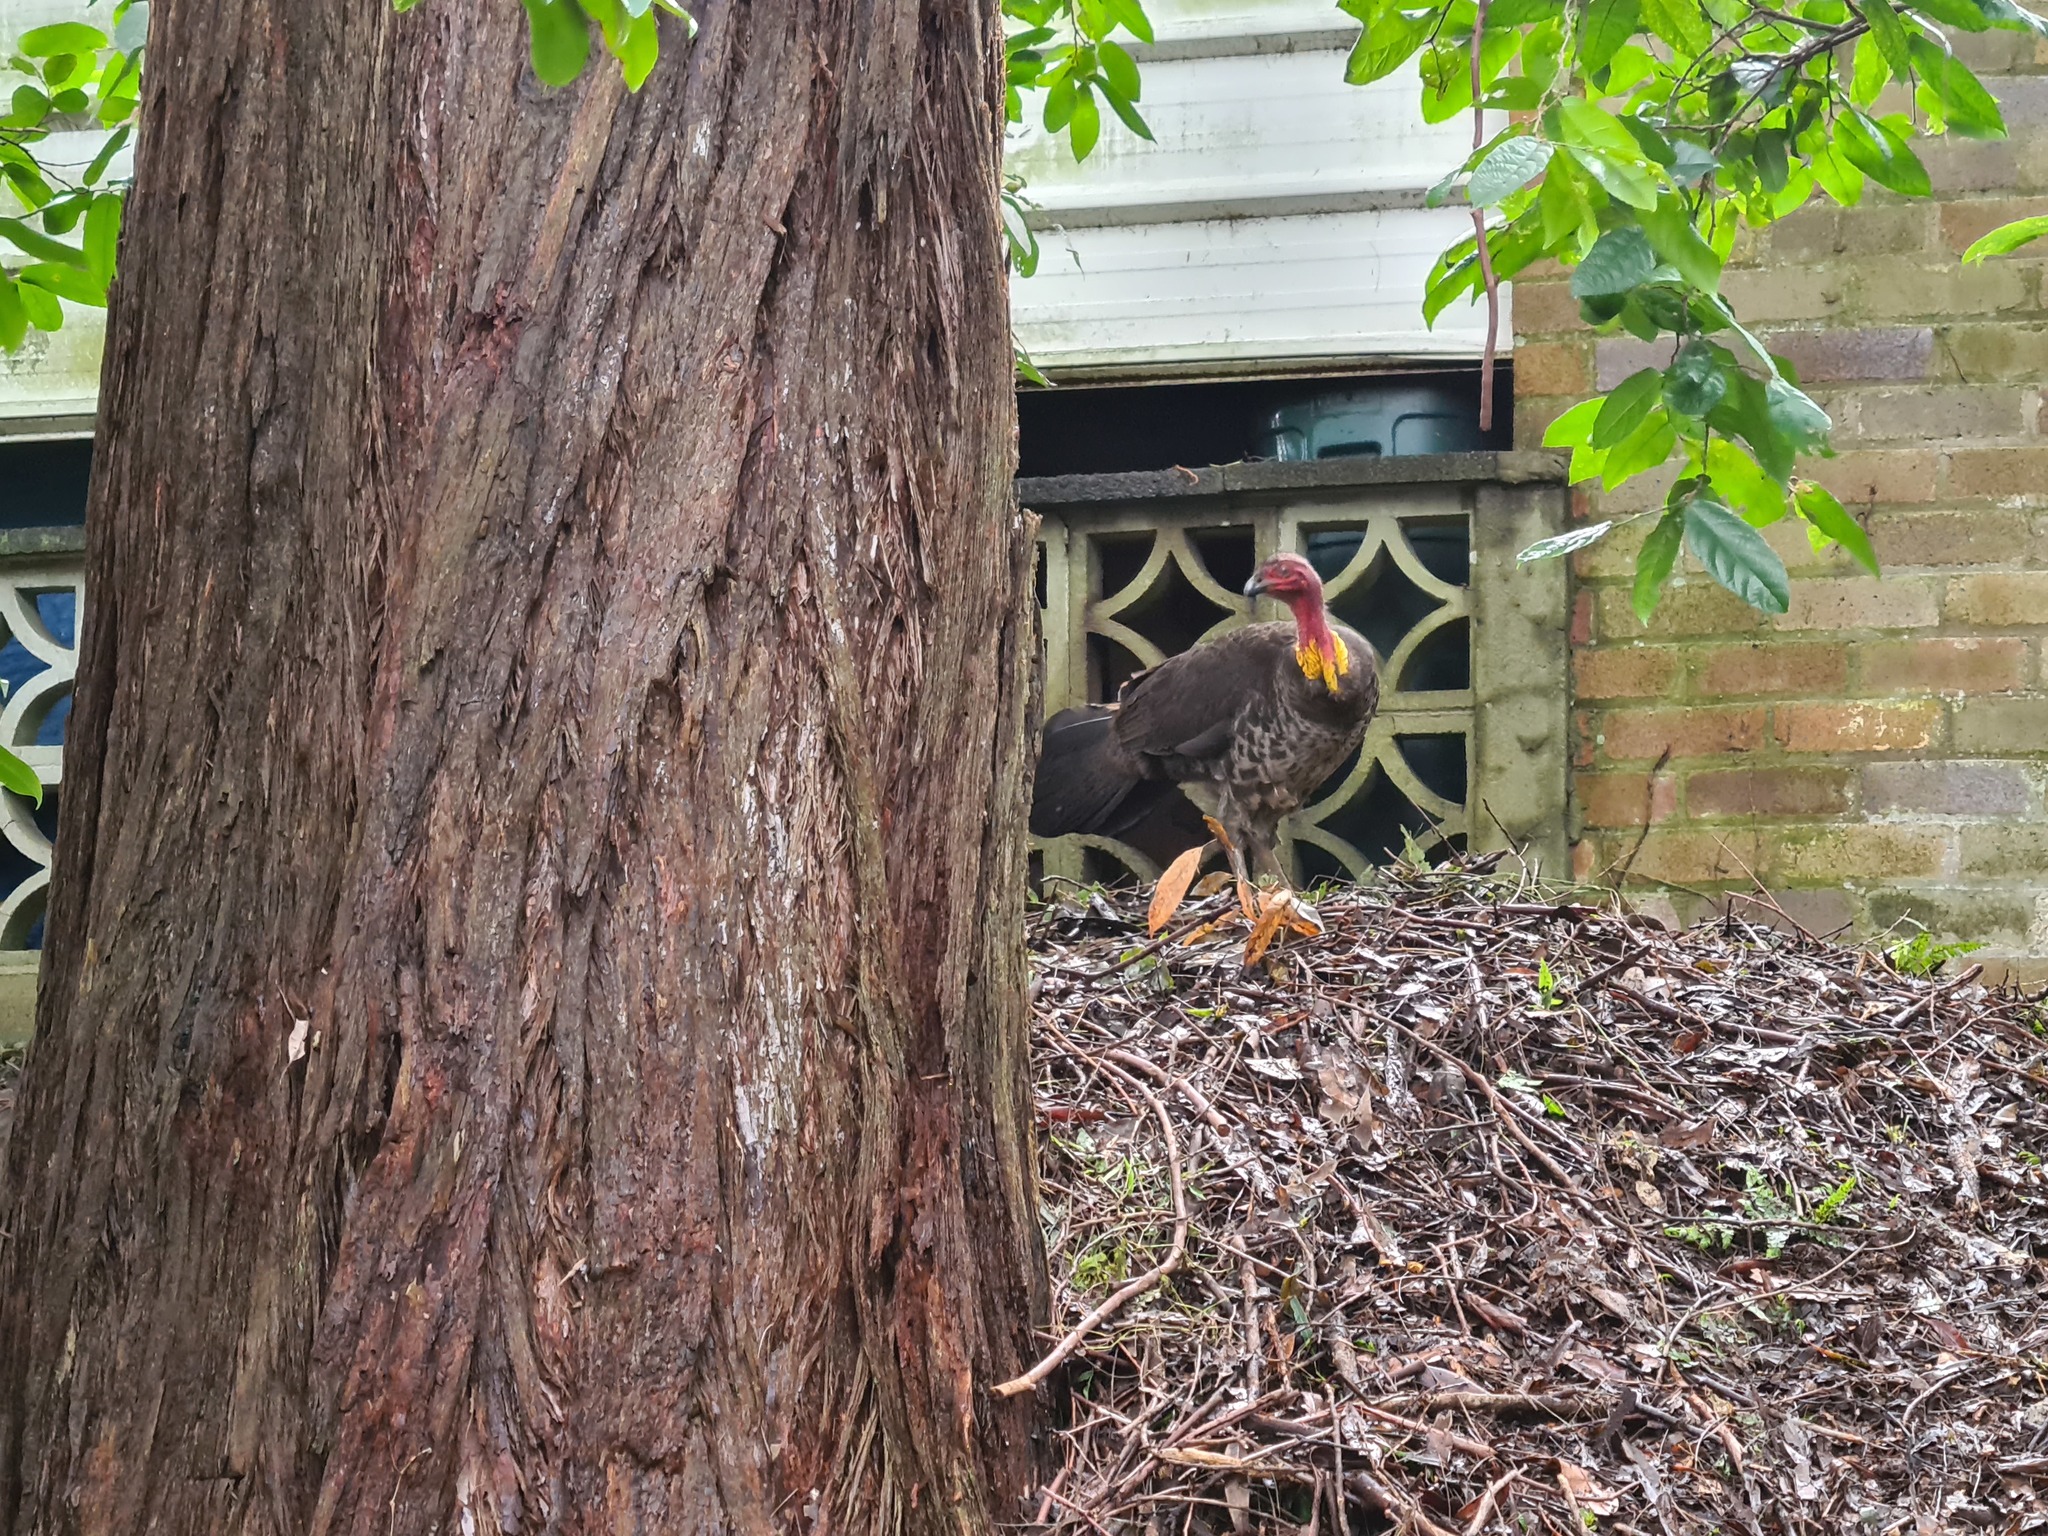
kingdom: Animalia
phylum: Chordata
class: Aves
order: Galliformes
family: Megapodiidae
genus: Alectura
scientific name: Alectura lathami
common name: Australian brushturkey
